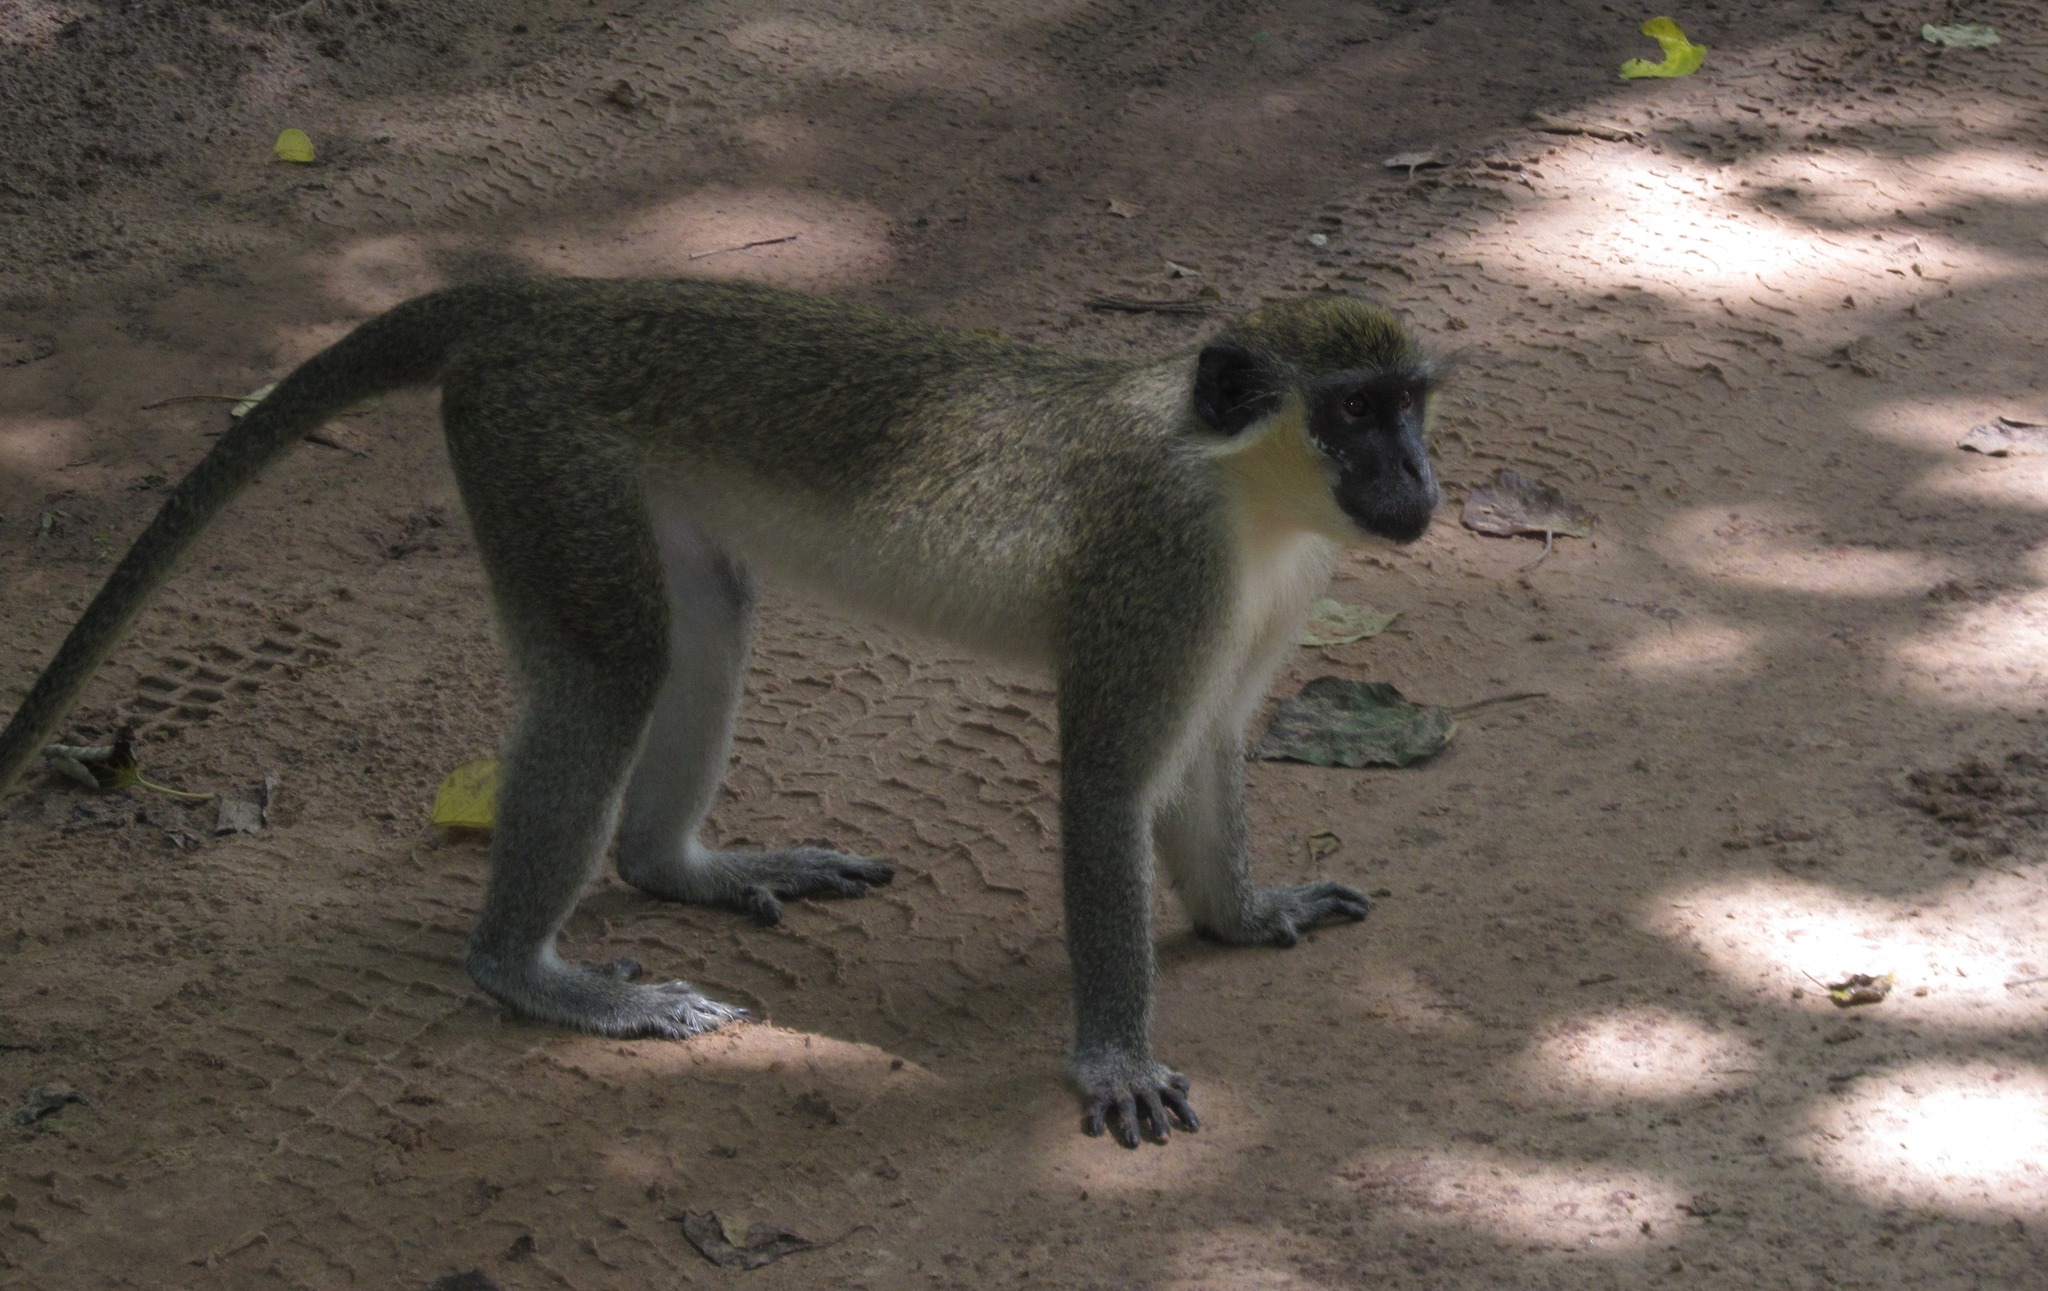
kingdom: Animalia
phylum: Chordata
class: Mammalia
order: Primates
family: Cercopithecidae
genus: Chlorocebus
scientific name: Chlorocebus sabaeus
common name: Green monkey
